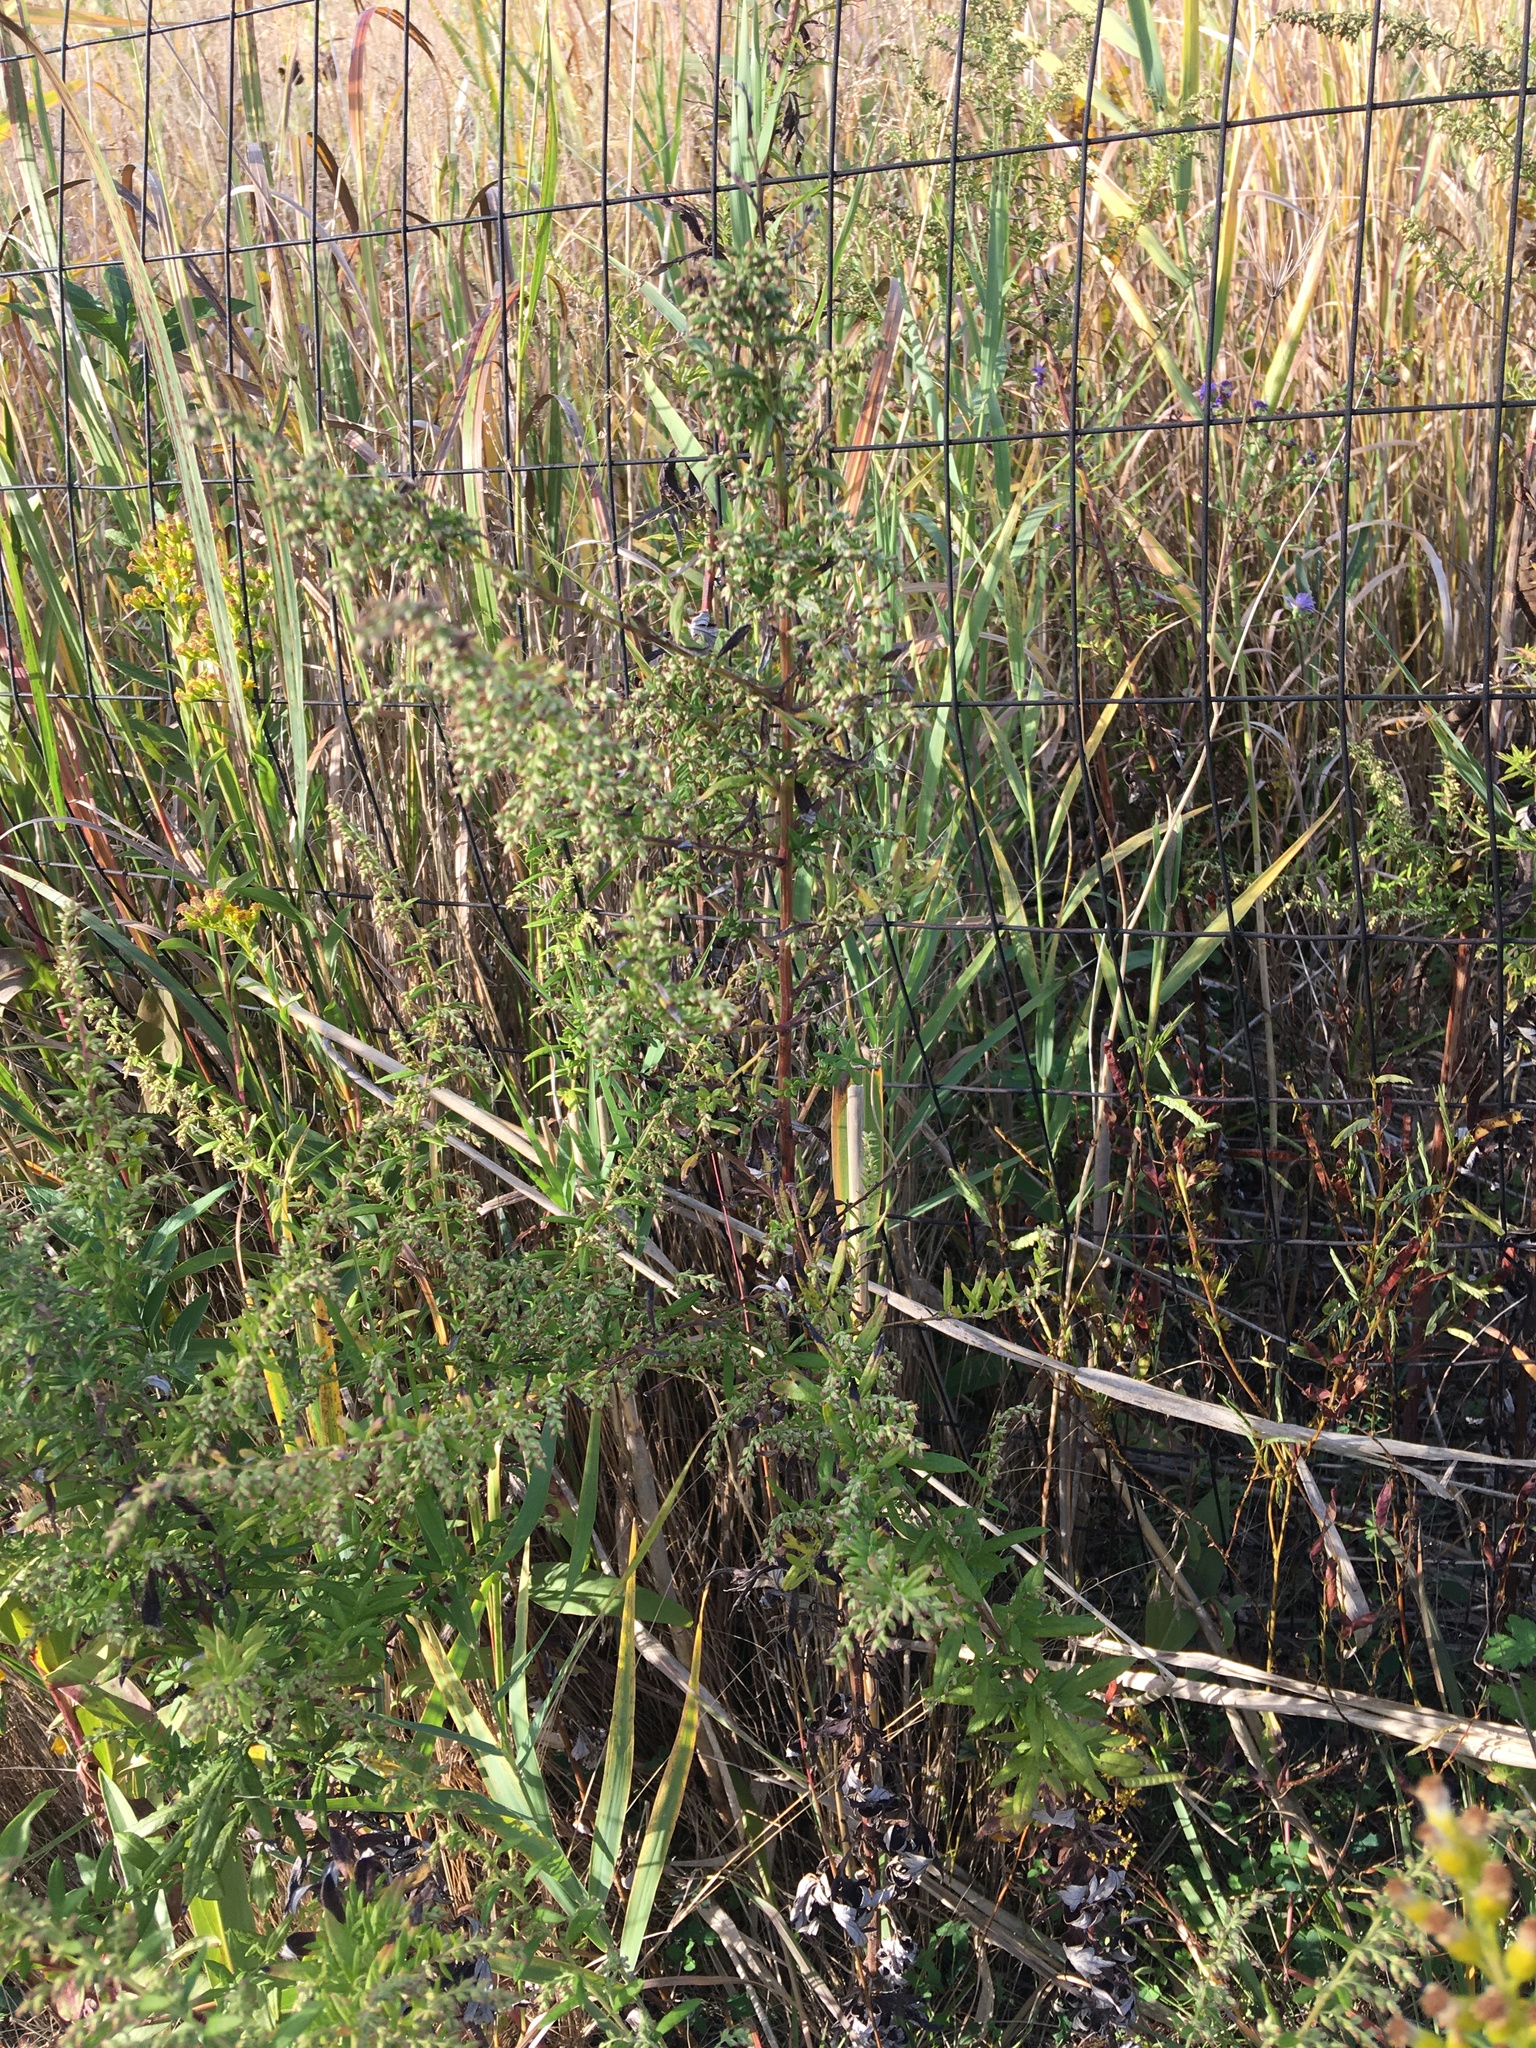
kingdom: Plantae
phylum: Tracheophyta
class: Magnoliopsida
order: Asterales
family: Asteraceae
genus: Artemisia
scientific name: Artemisia vulgaris
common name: Mugwort
